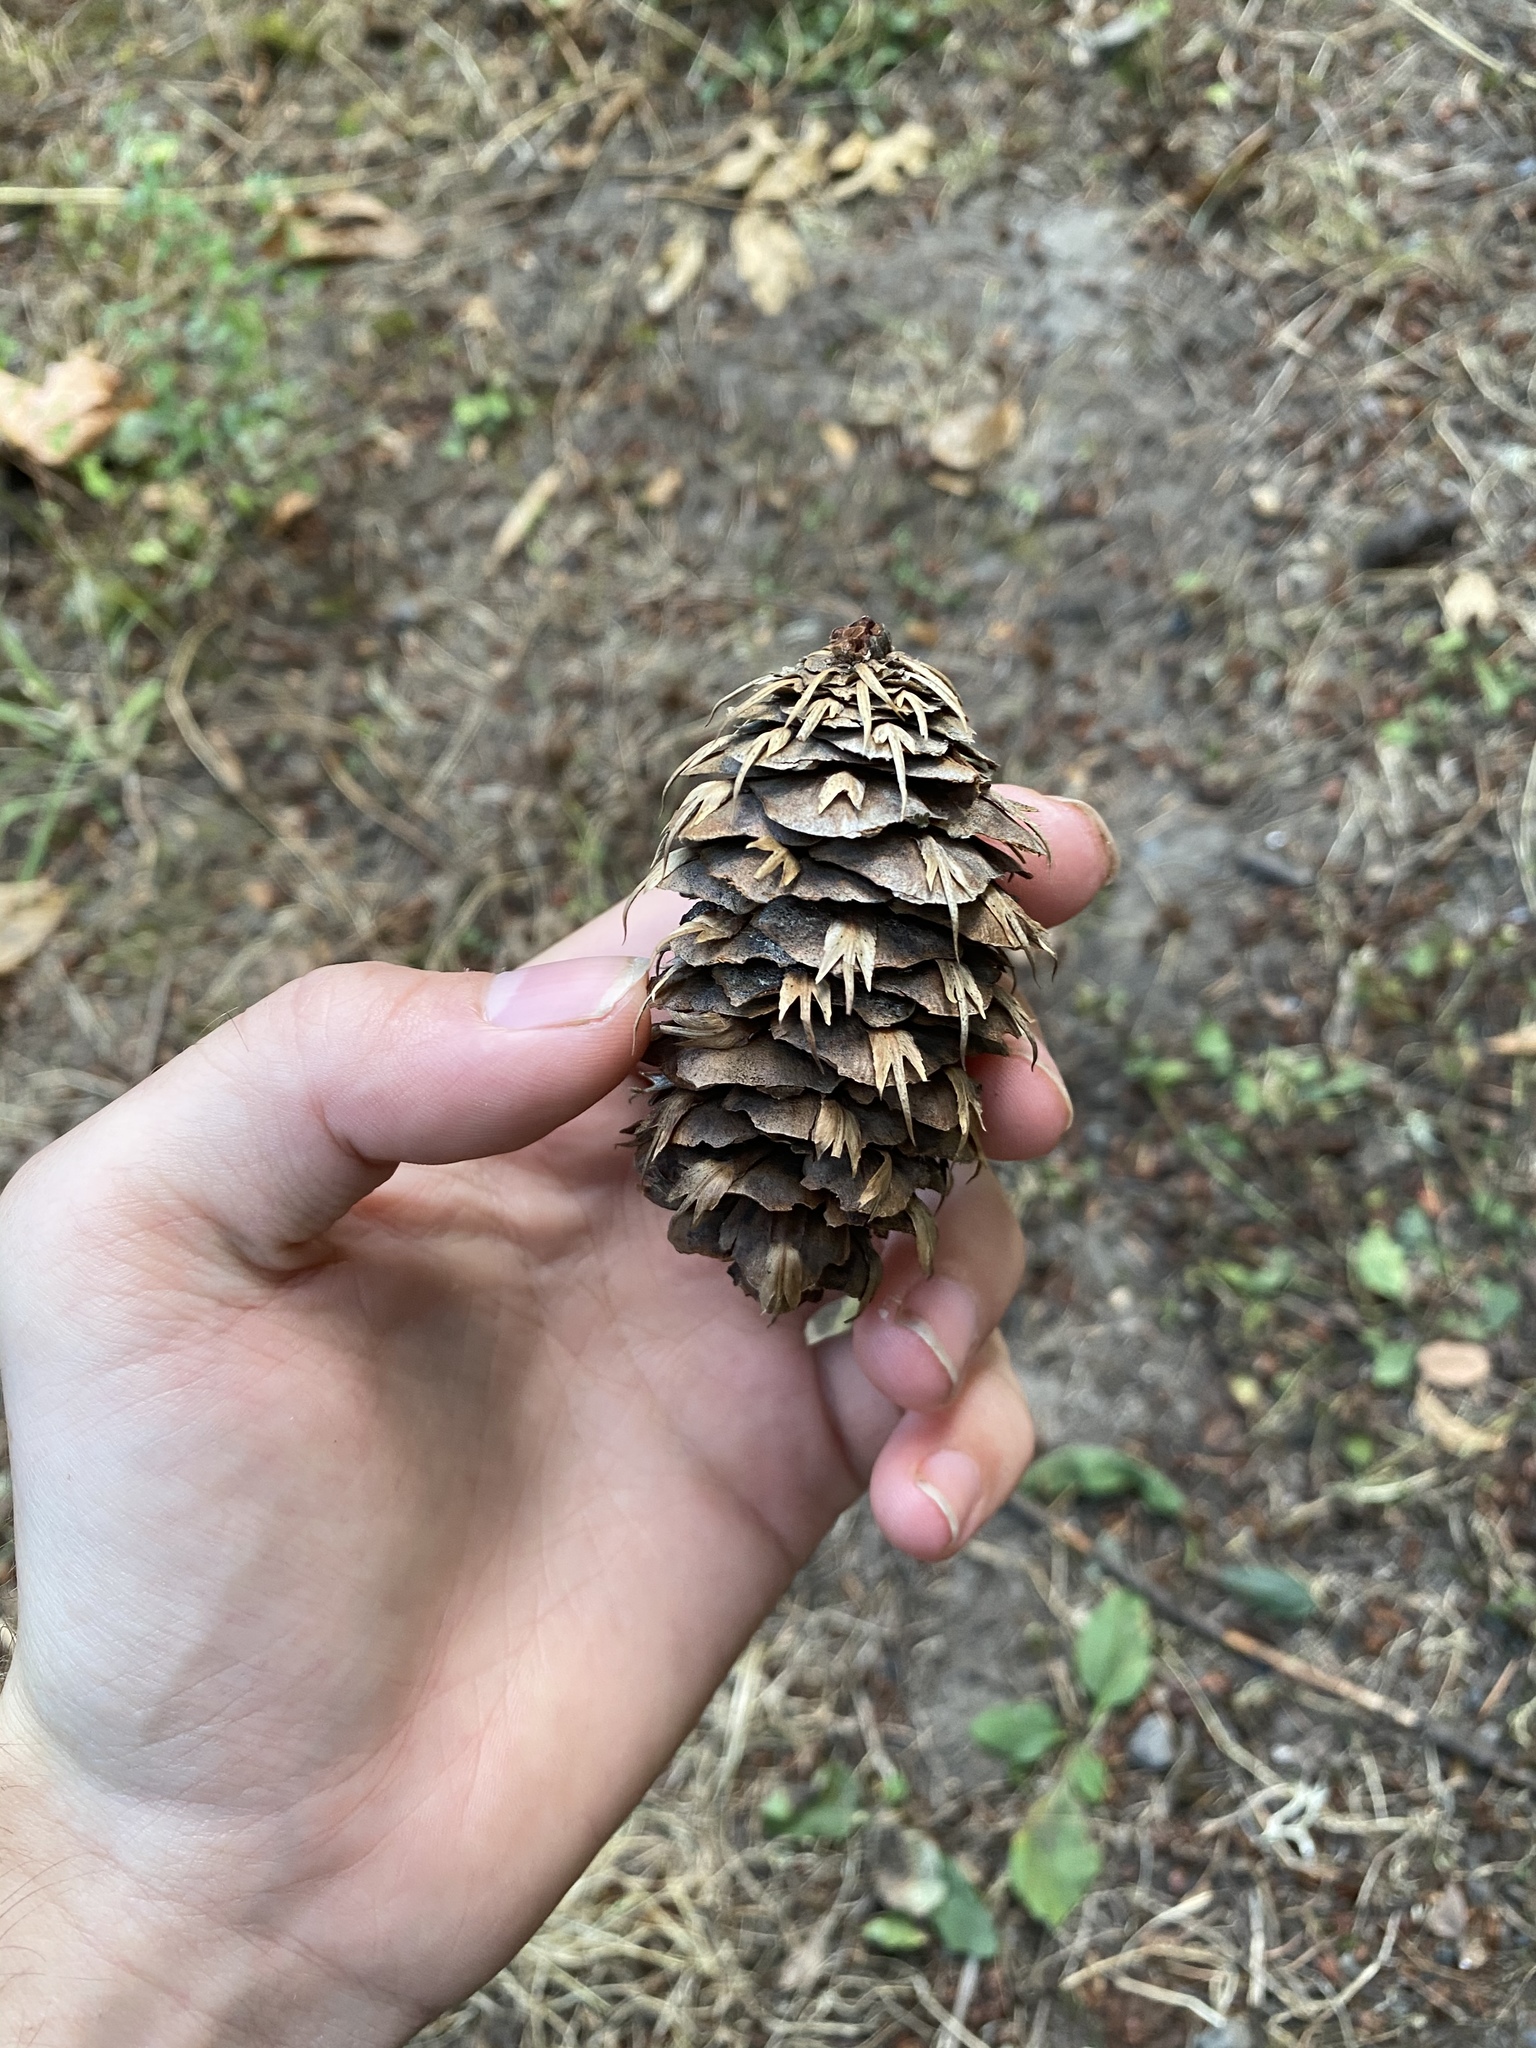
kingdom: Plantae
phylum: Tracheophyta
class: Pinopsida
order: Pinales
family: Pinaceae
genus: Pseudotsuga
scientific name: Pseudotsuga menziesii
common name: Douglas fir
